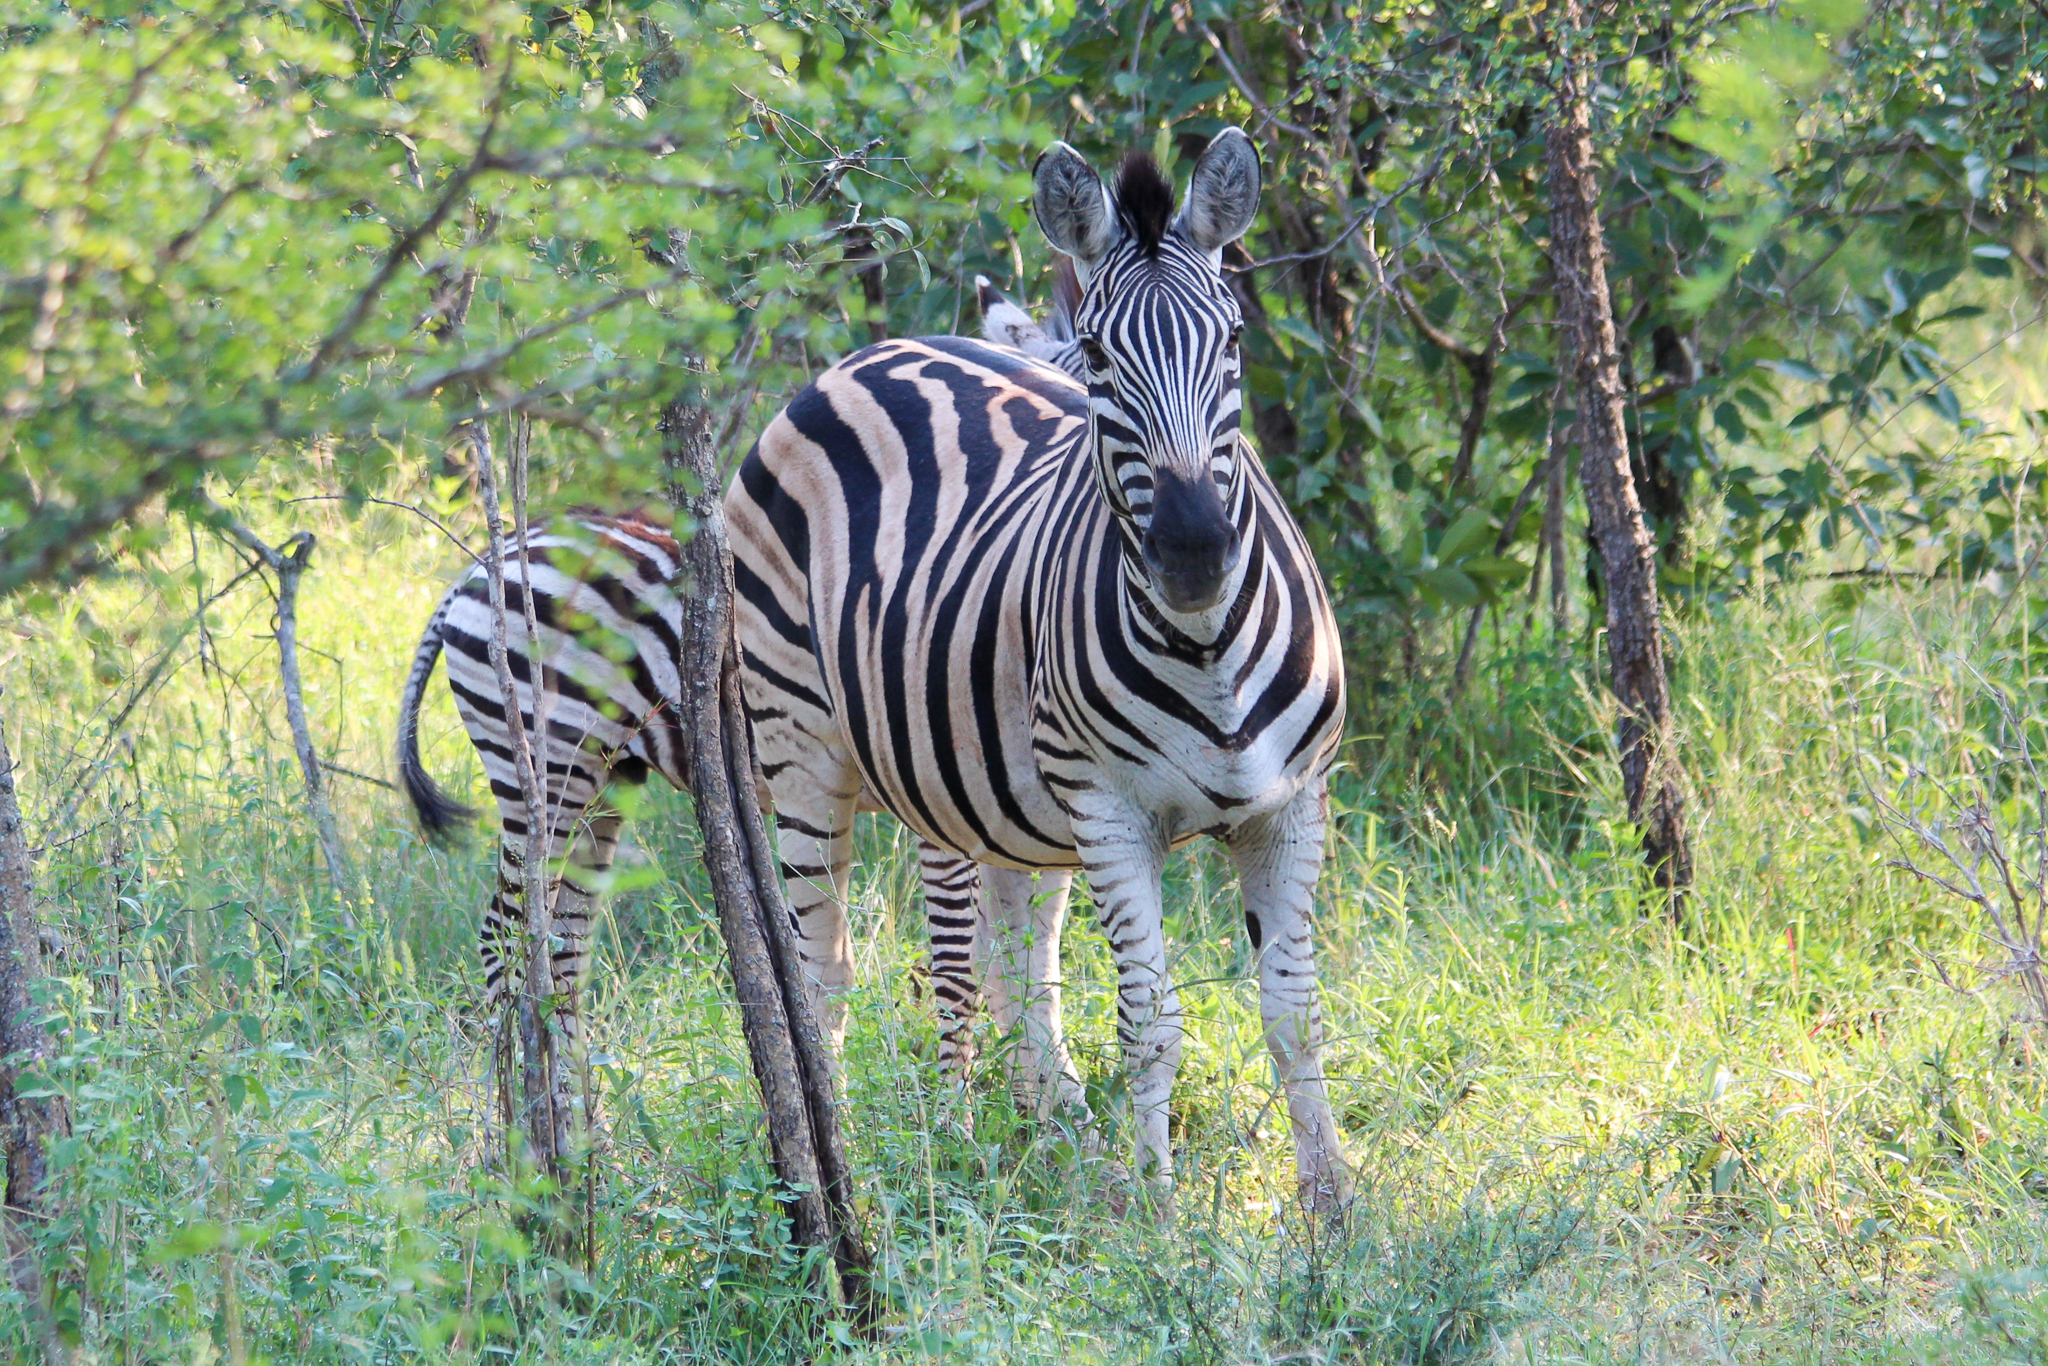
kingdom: Animalia
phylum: Chordata
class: Mammalia
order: Perissodactyla
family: Equidae
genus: Equus
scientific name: Equus quagga
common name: Plains zebra
